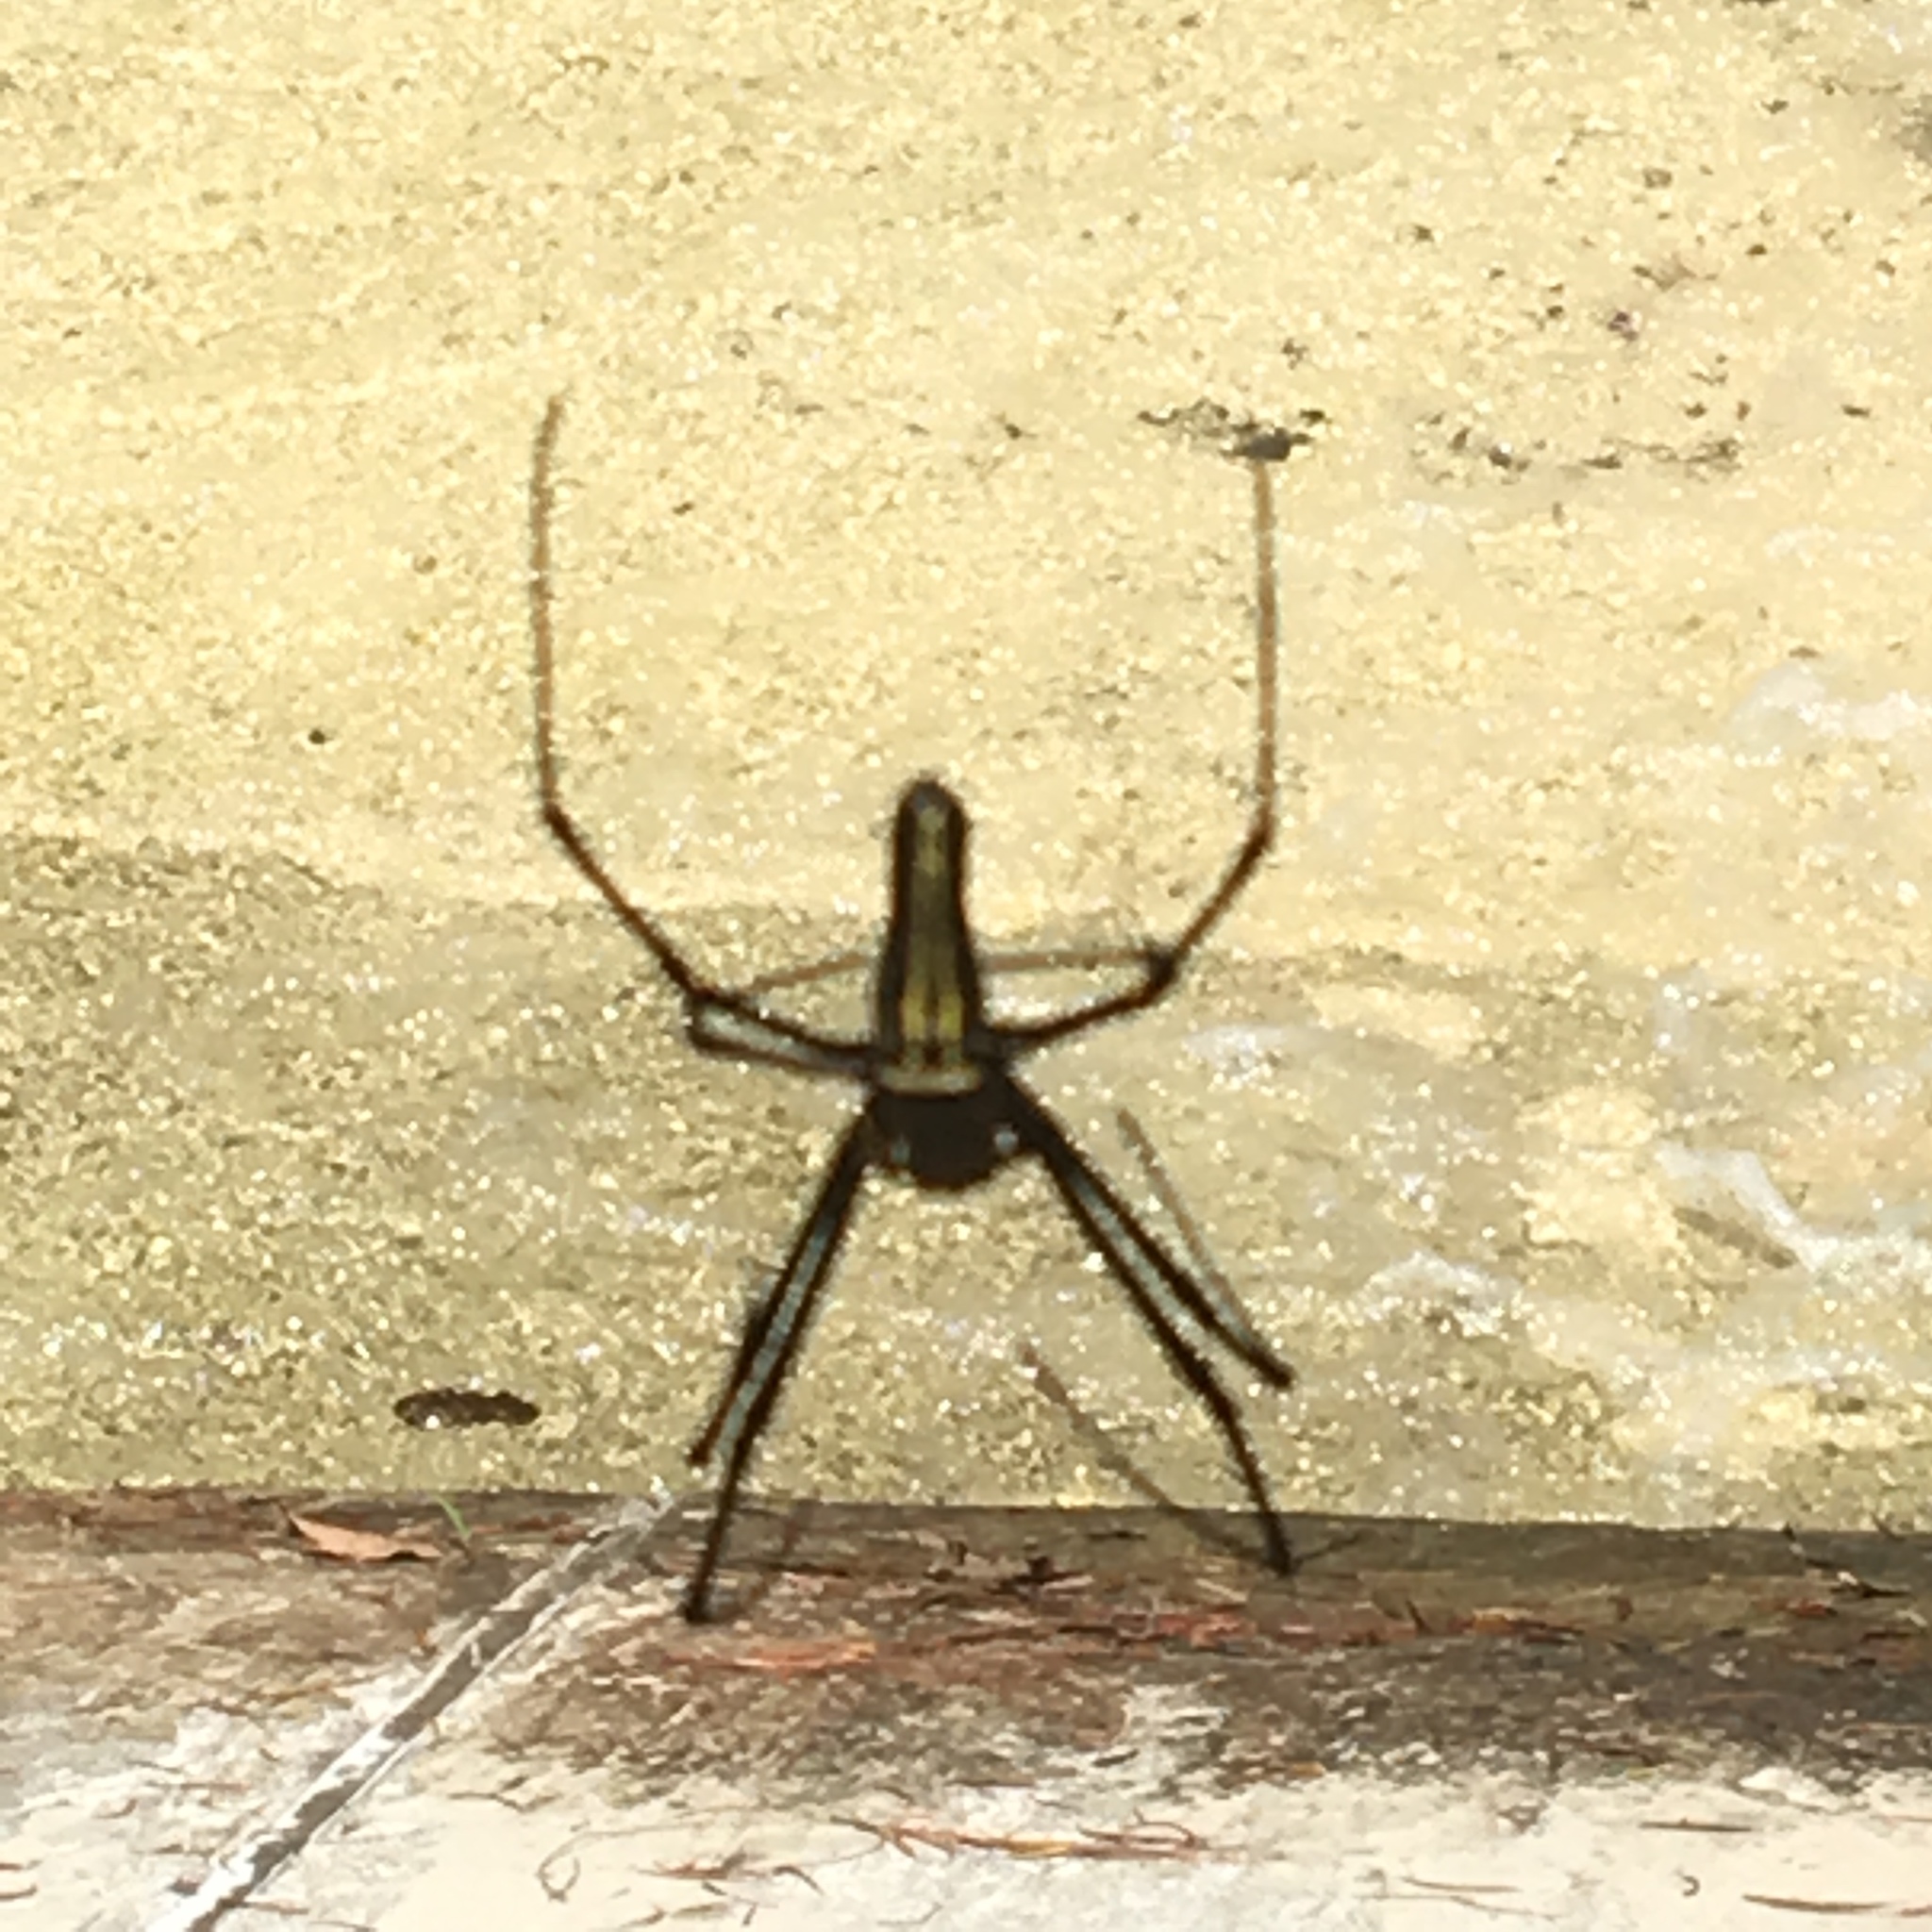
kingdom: Animalia
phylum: Arthropoda
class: Arachnida
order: Araneae
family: Araneidae
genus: Nephila
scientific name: Nephila pilipes
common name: Giant golden orb weaver
